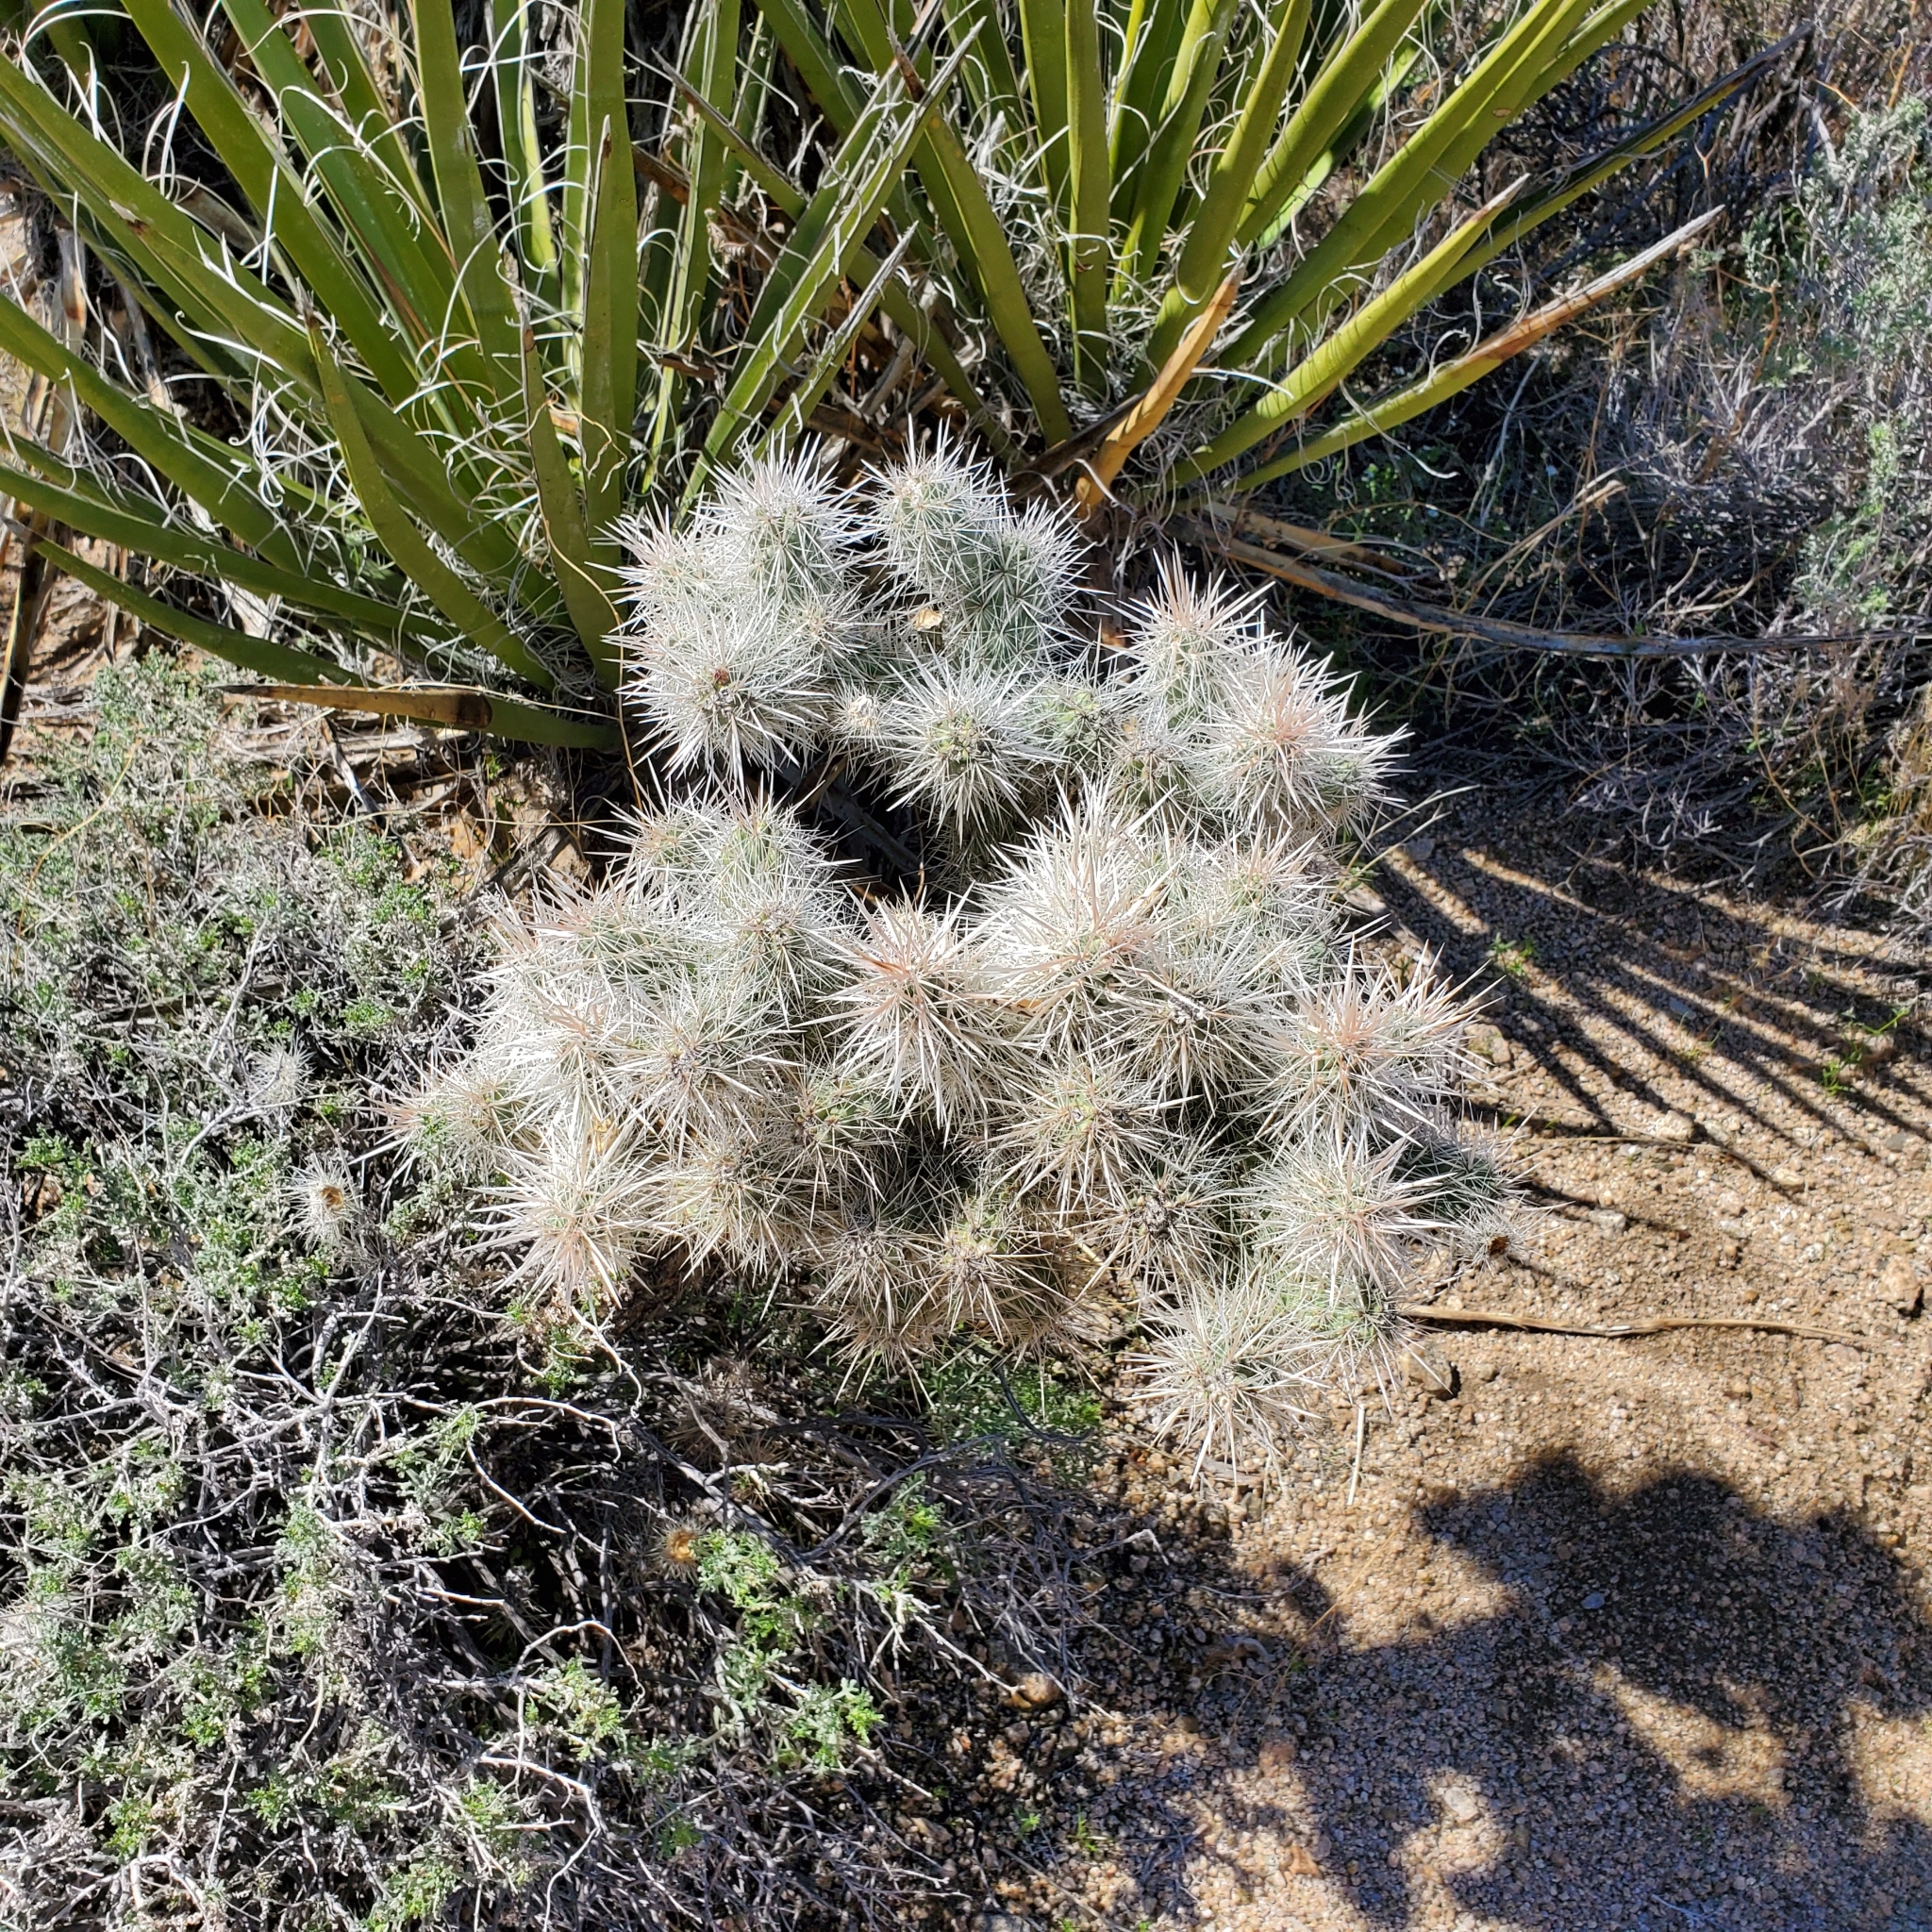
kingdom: Plantae
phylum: Tracheophyta
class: Magnoliopsida
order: Caryophyllales
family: Cactaceae
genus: Cylindropuntia
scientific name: Cylindropuntia echinocarpa
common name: Ground cholla
